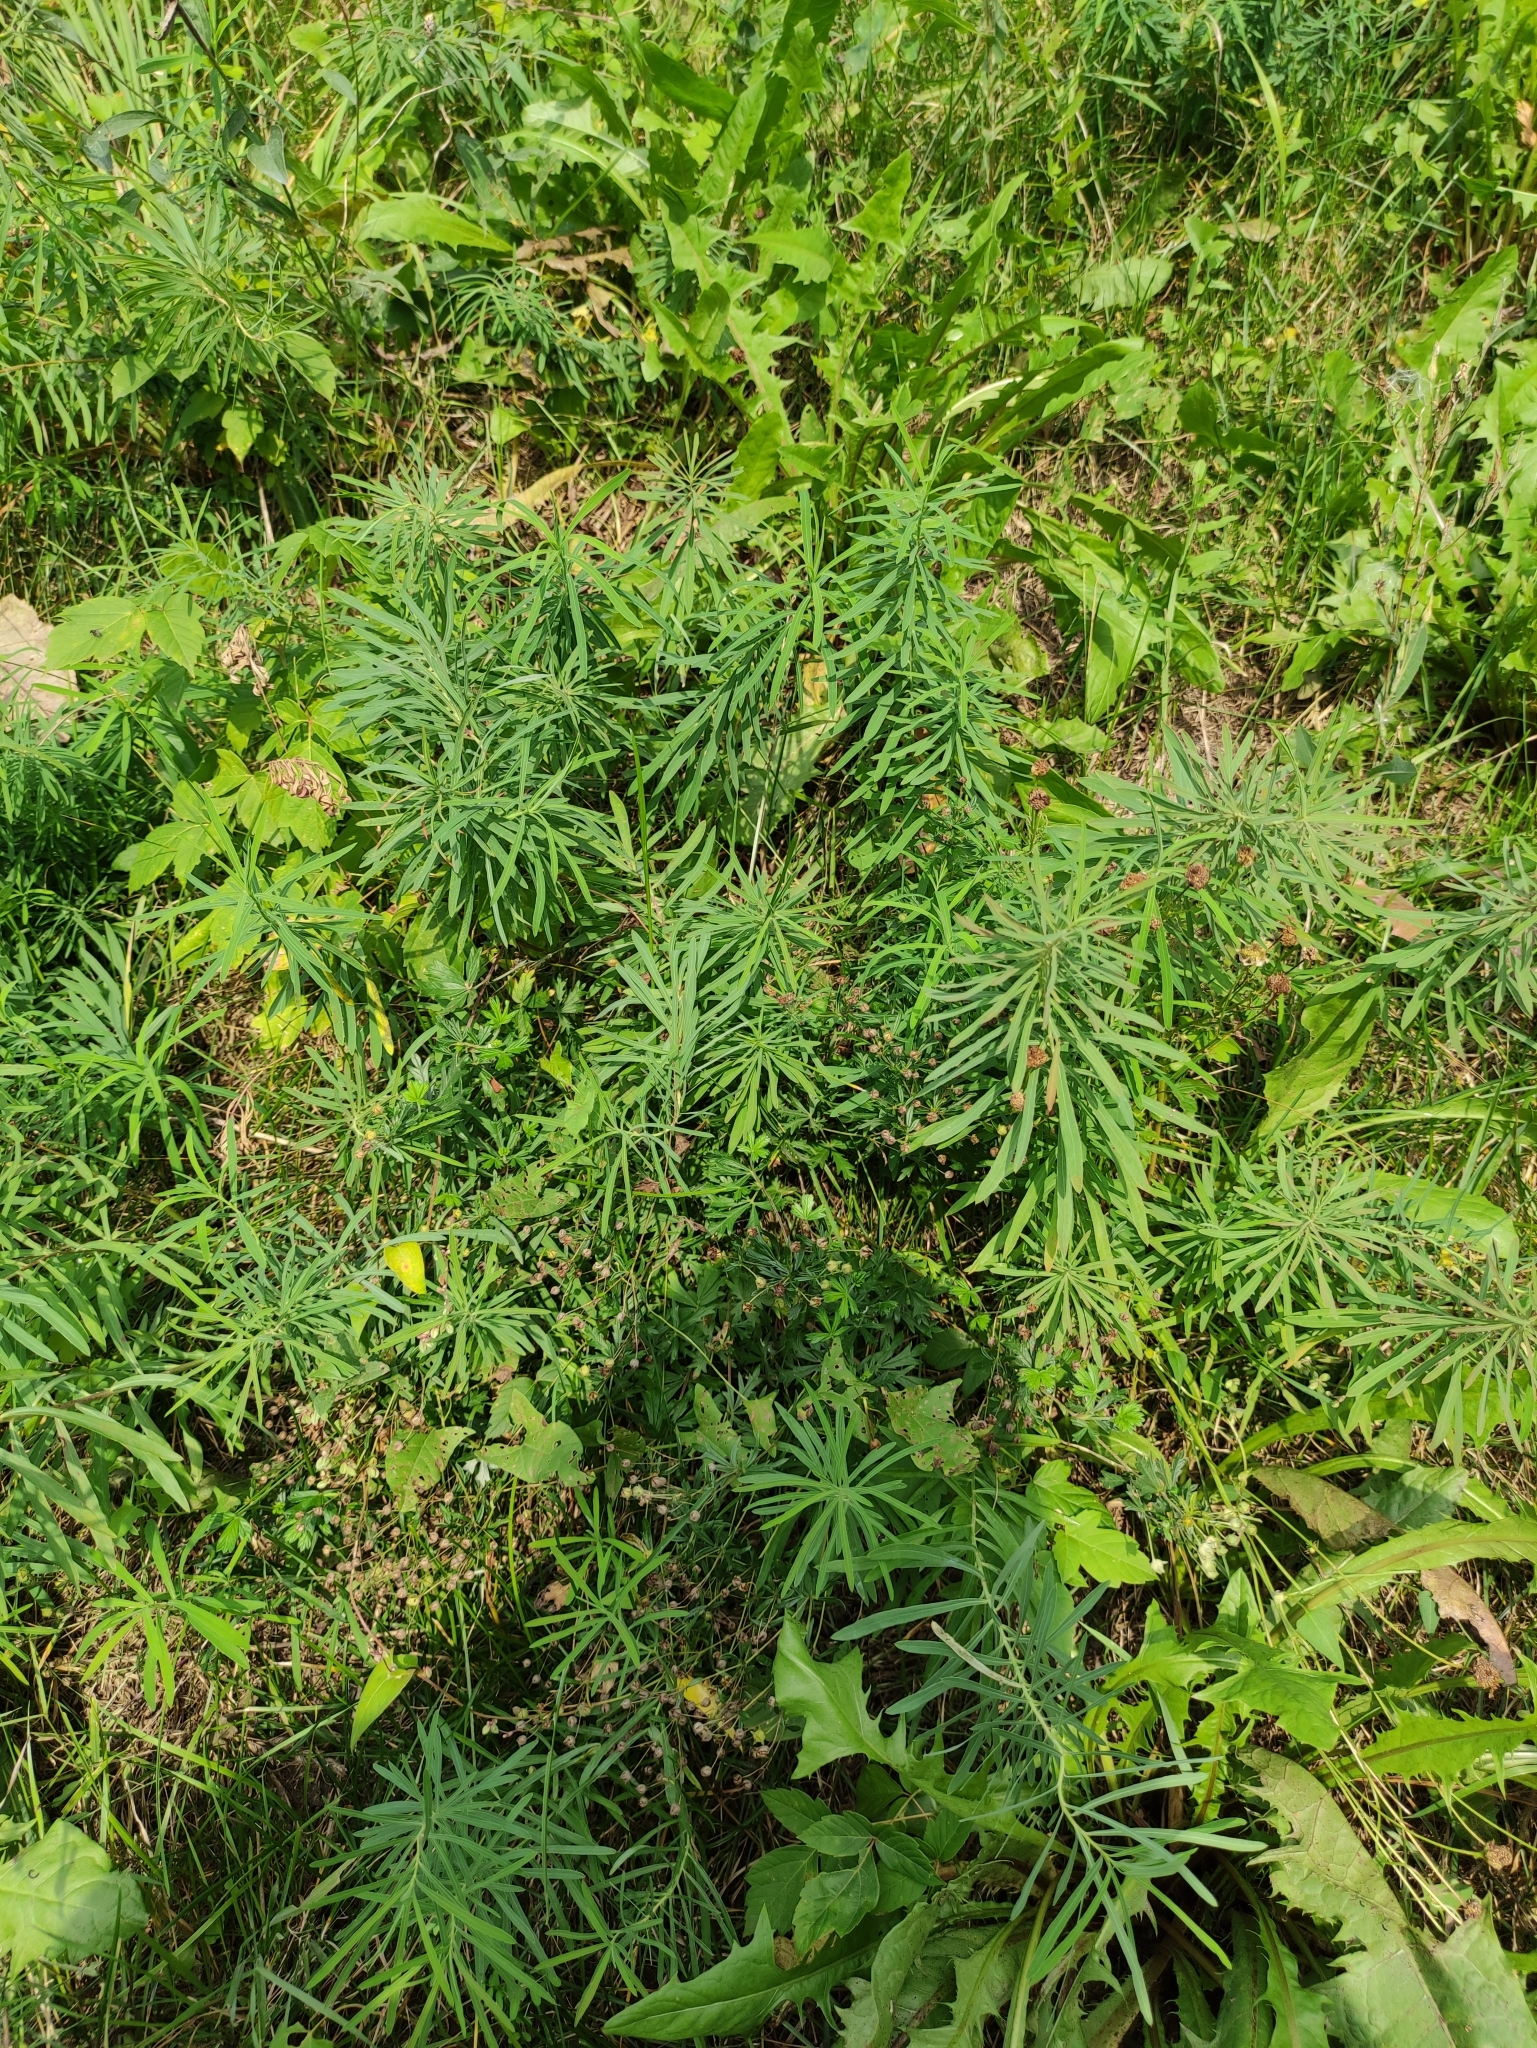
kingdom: Plantae
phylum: Tracheophyta
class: Magnoliopsida
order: Malpighiales
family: Euphorbiaceae
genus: Euphorbia
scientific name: Euphorbia virgata
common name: Leafy spurge
